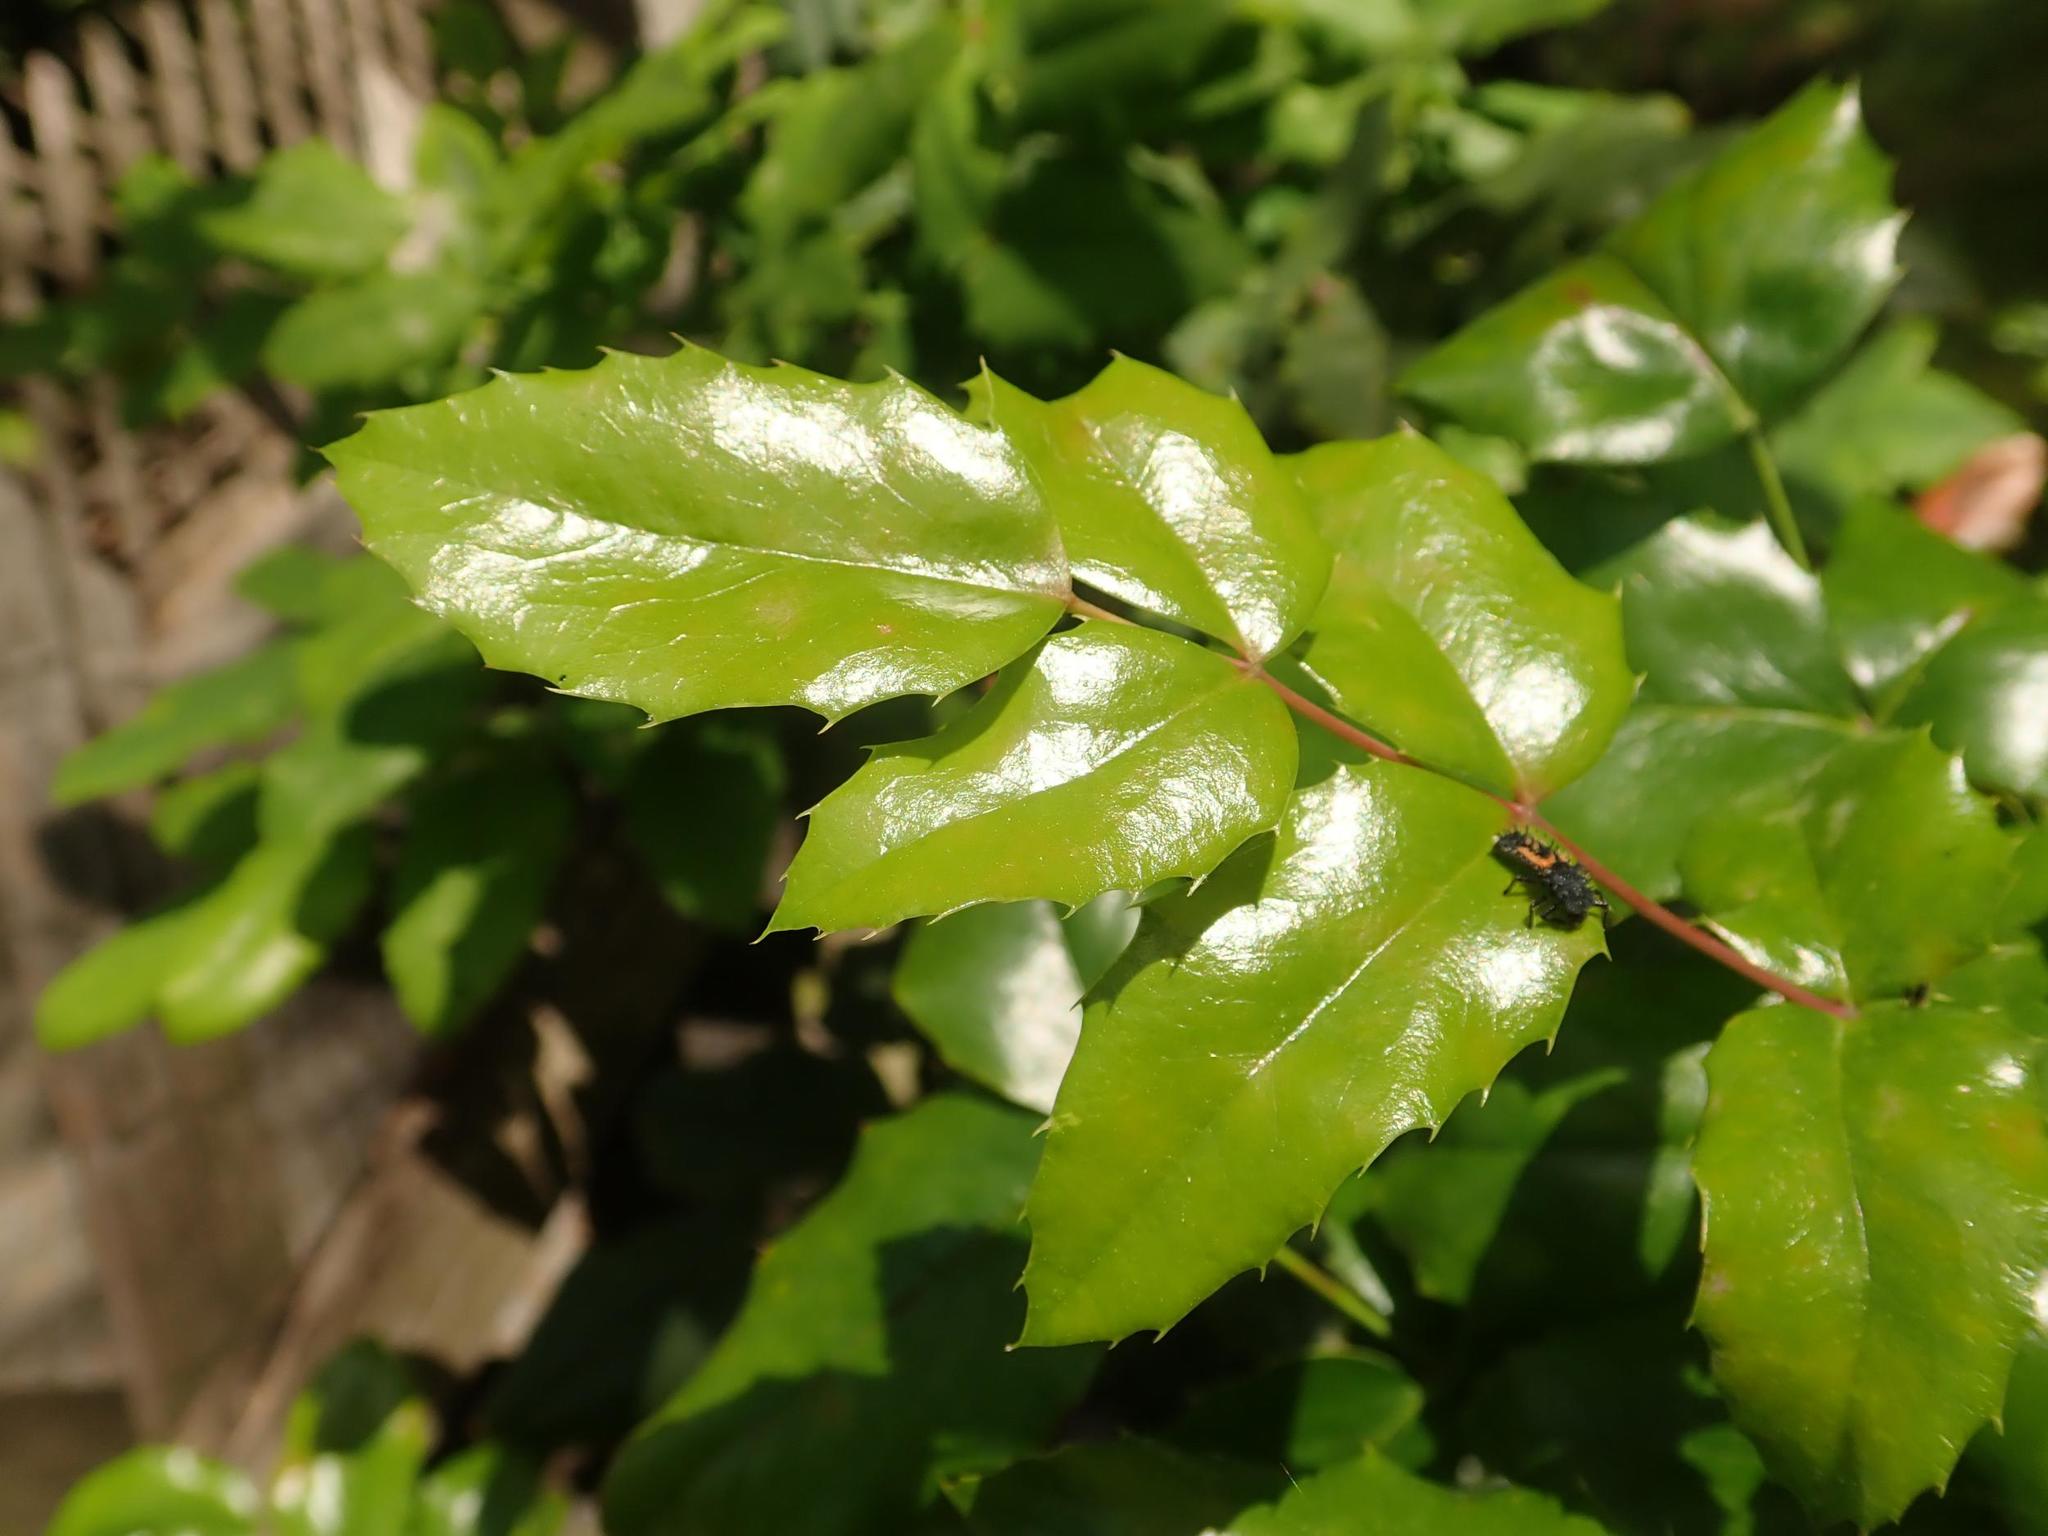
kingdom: Plantae
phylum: Tracheophyta
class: Magnoliopsida
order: Ranunculales
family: Berberidaceae
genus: Mahonia
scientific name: Mahonia aquifolium
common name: Oregon-grape
